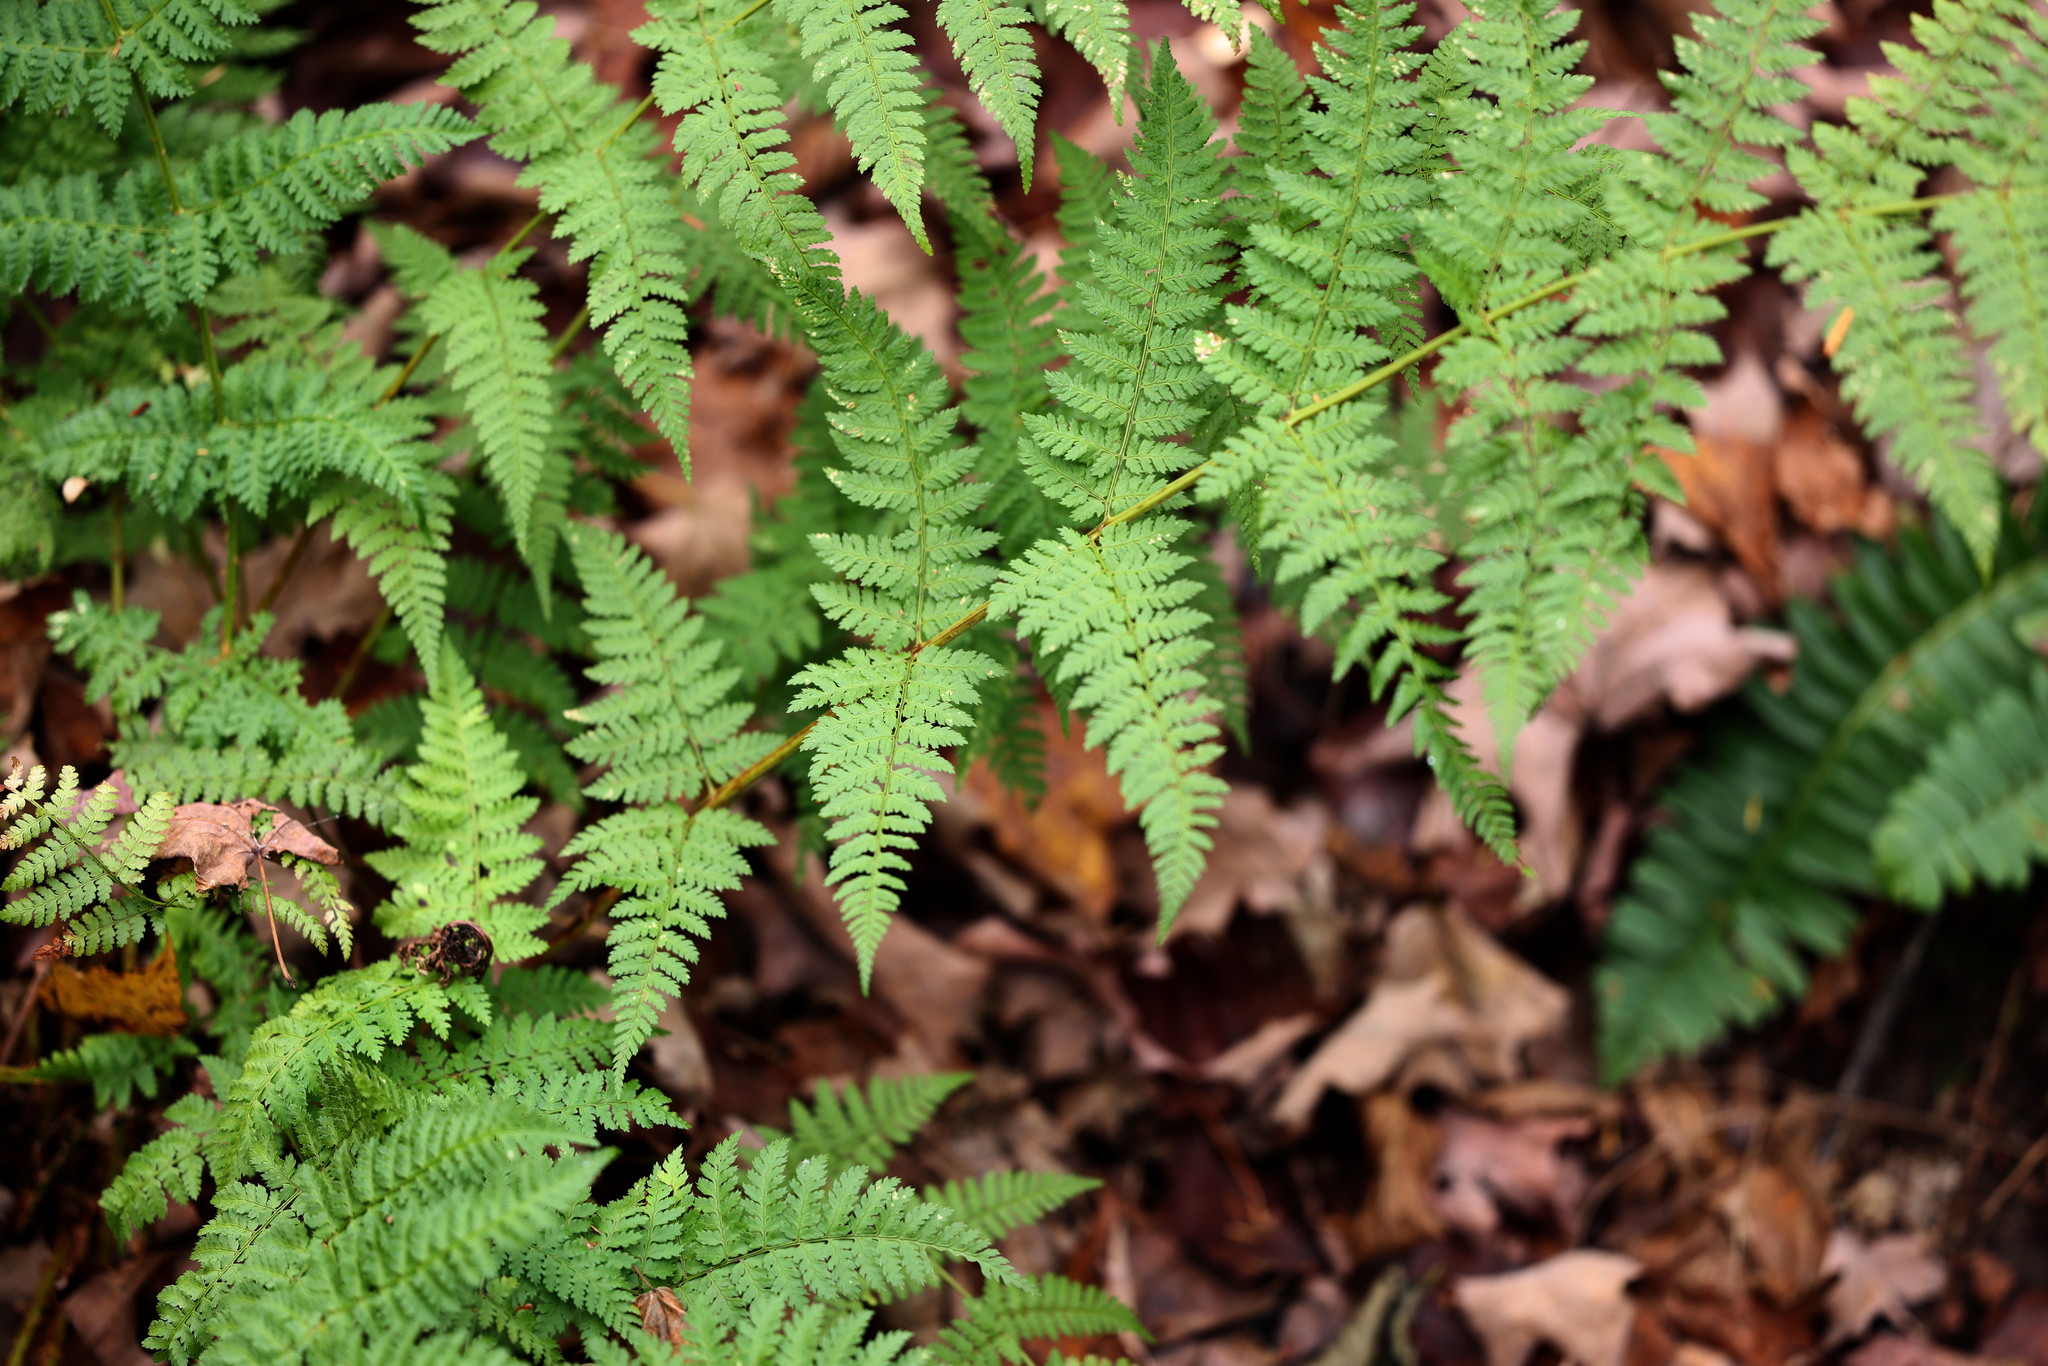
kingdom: Plantae
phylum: Tracheophyta
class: Polypodiopsida
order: Polypodiales
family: Dryopteridaceae
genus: Dryopteris
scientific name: Dryopteris intermedia
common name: Evergreen wood fern
